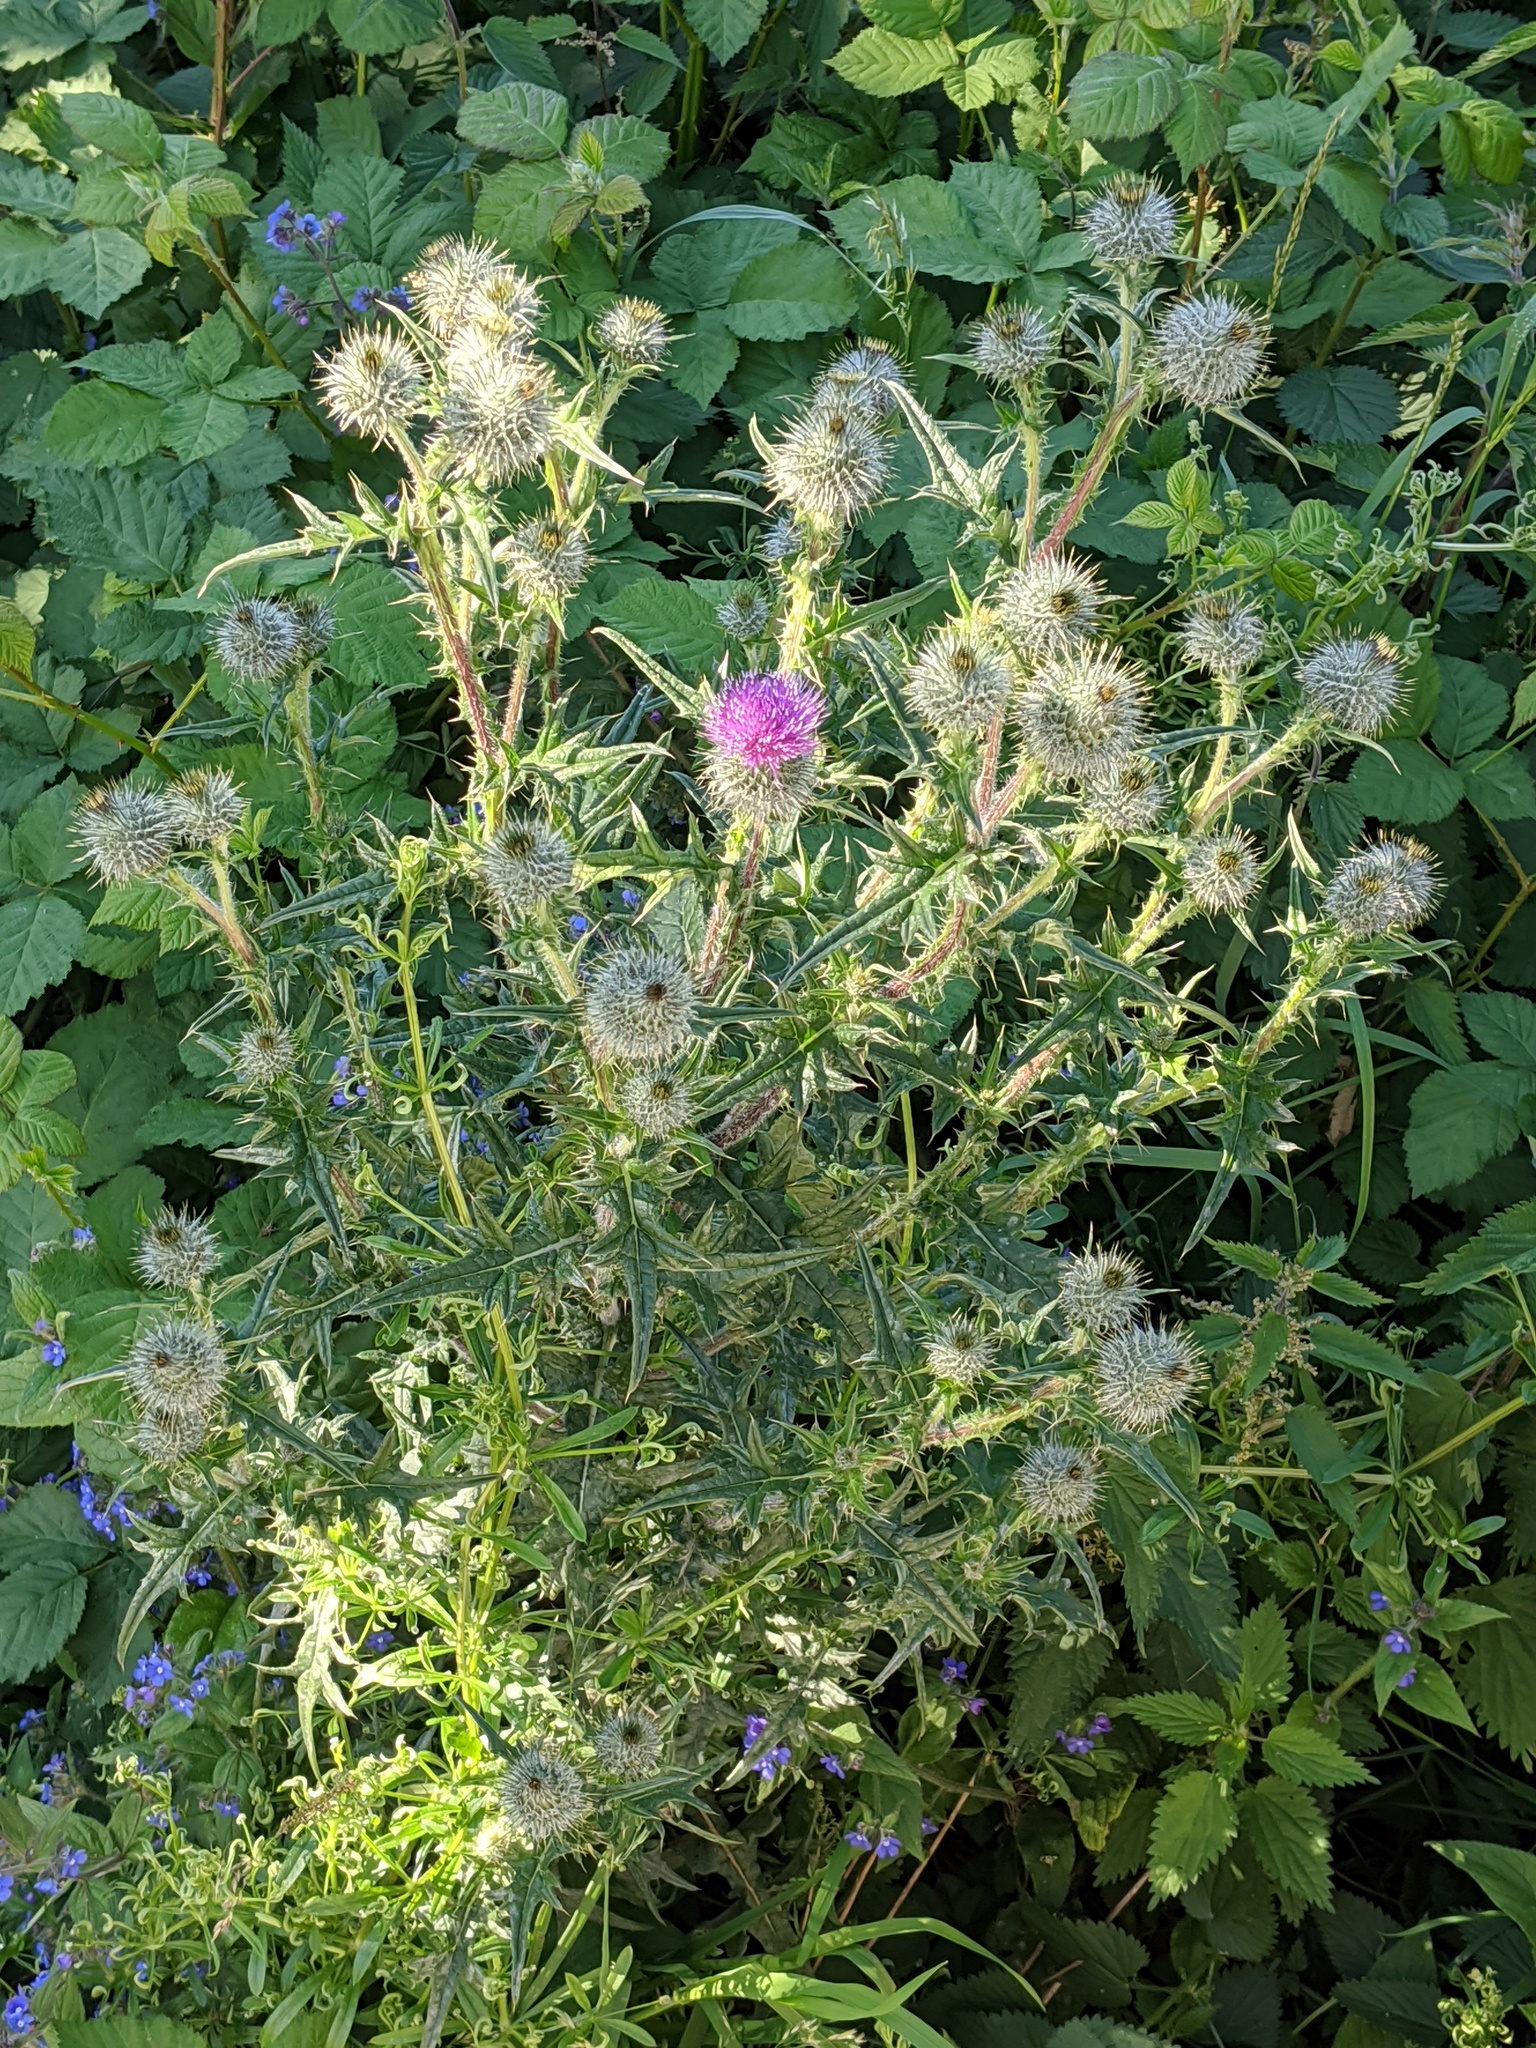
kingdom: Plantae
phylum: Tracheophyta
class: Magnoliopsida
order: Asterales
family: Asteraceae
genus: Cirsium
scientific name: Cirsium vulgare
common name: Bull thistle
